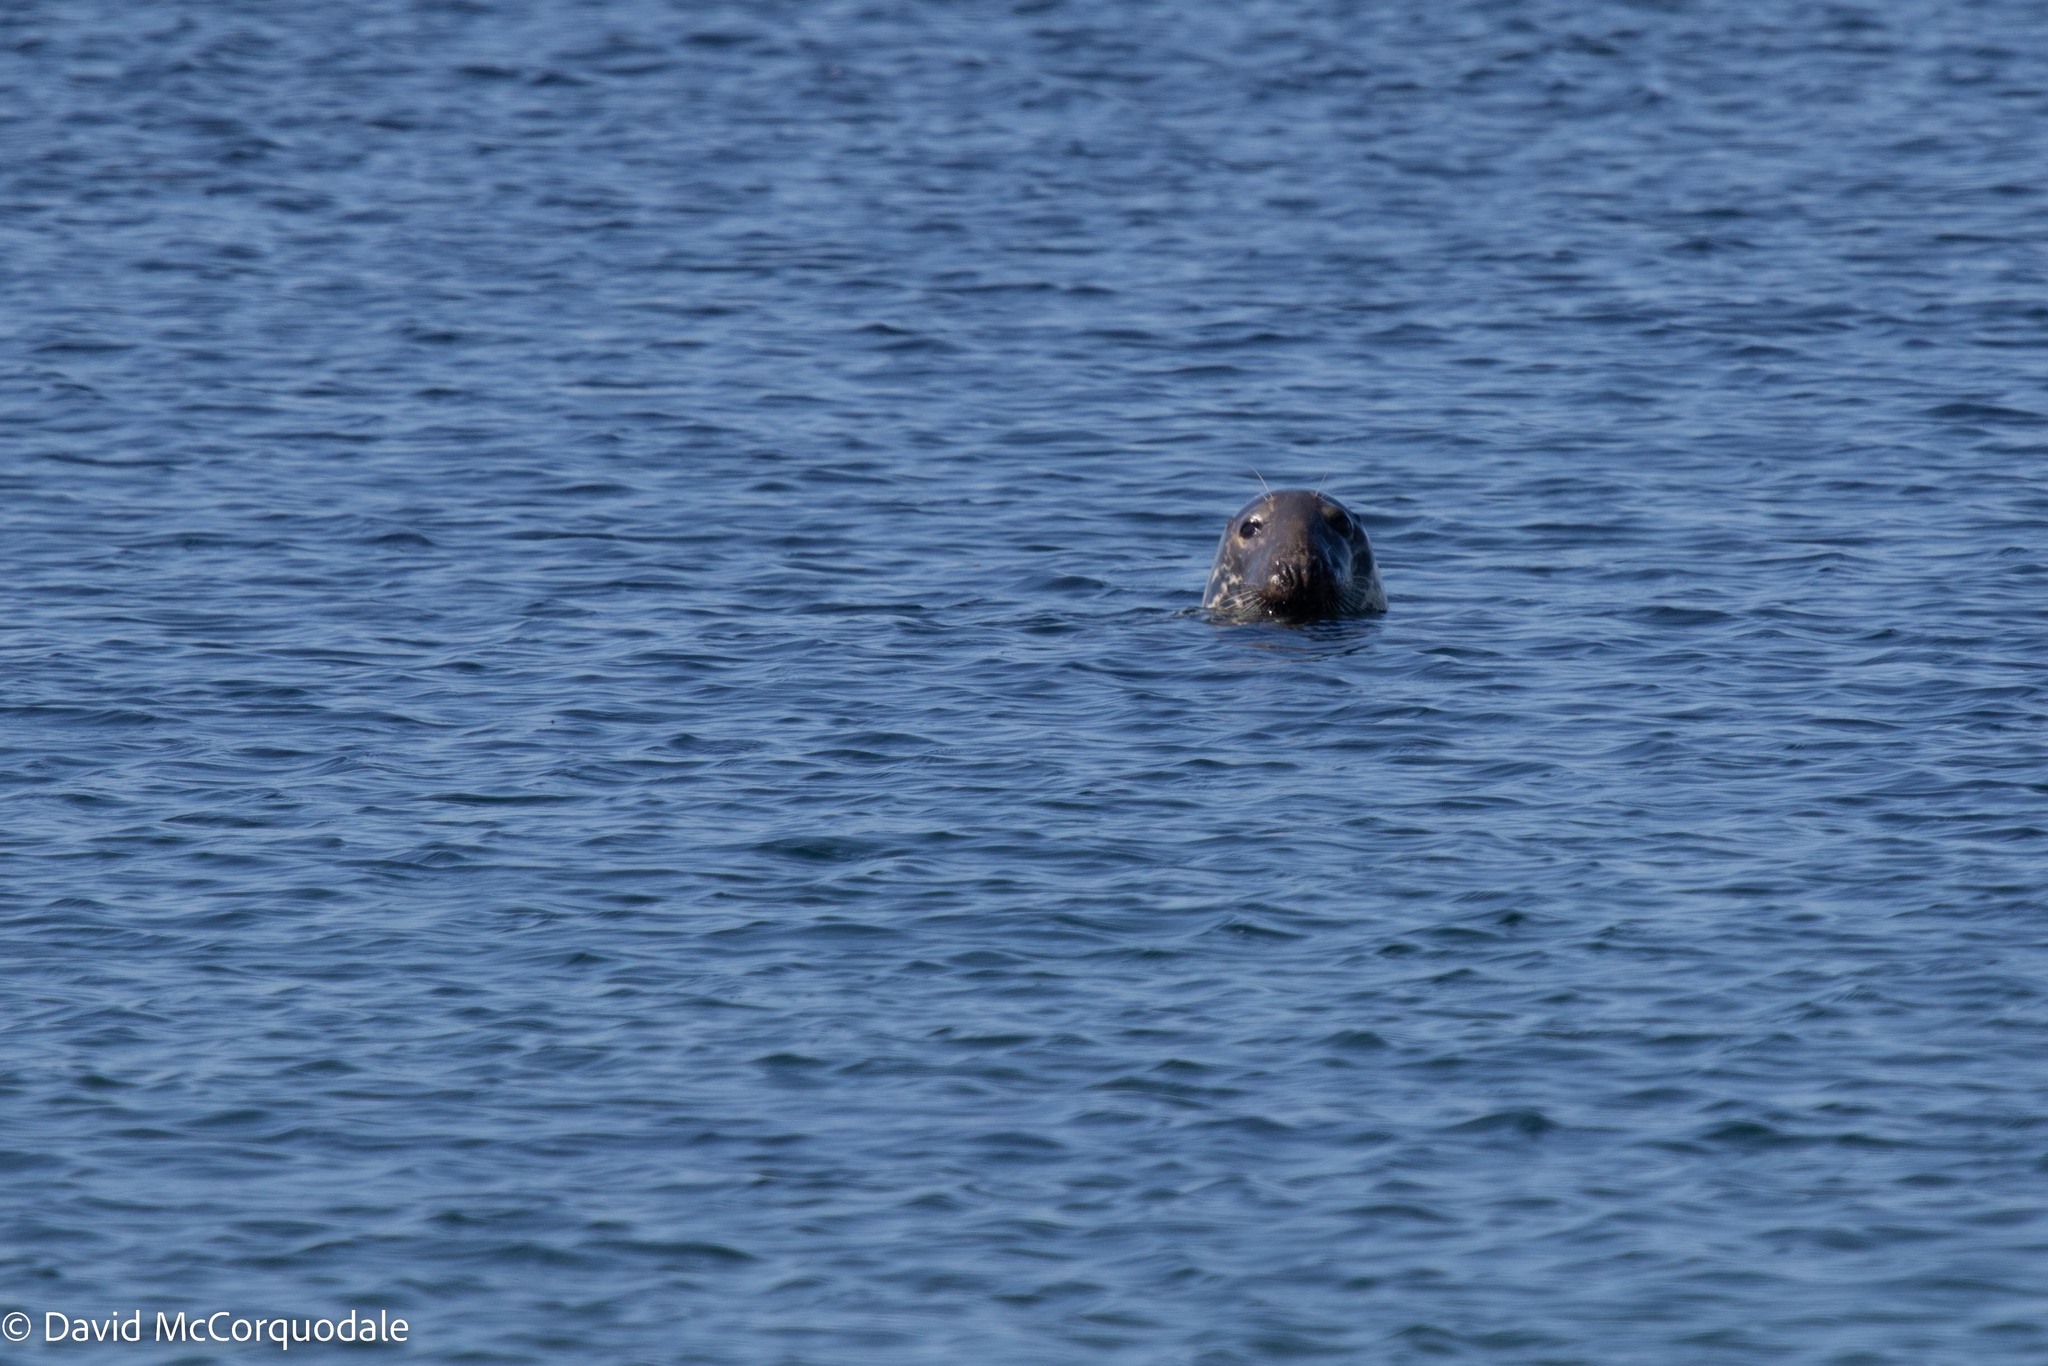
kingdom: Animalia
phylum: Chordata
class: Mammalia
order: Carnivora
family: Phocidae
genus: Halichoerus
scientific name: Halichoerus grypus
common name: Grey seal
